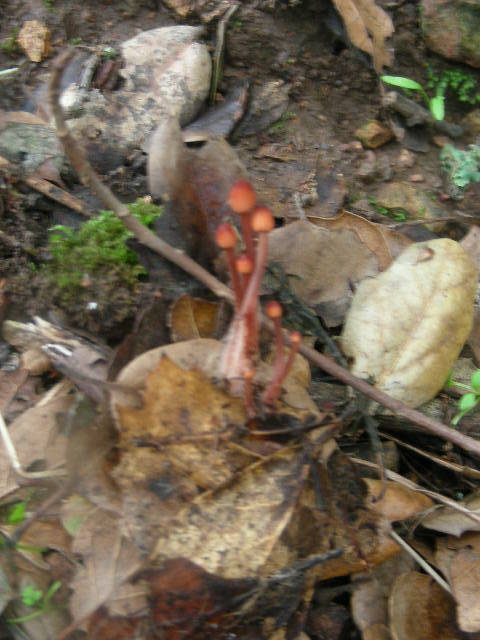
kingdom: Fungi
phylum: Basidiomycota
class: Agaricomycetes
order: Agaricales
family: Mycenaceae
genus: Mycena
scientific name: Mycena
